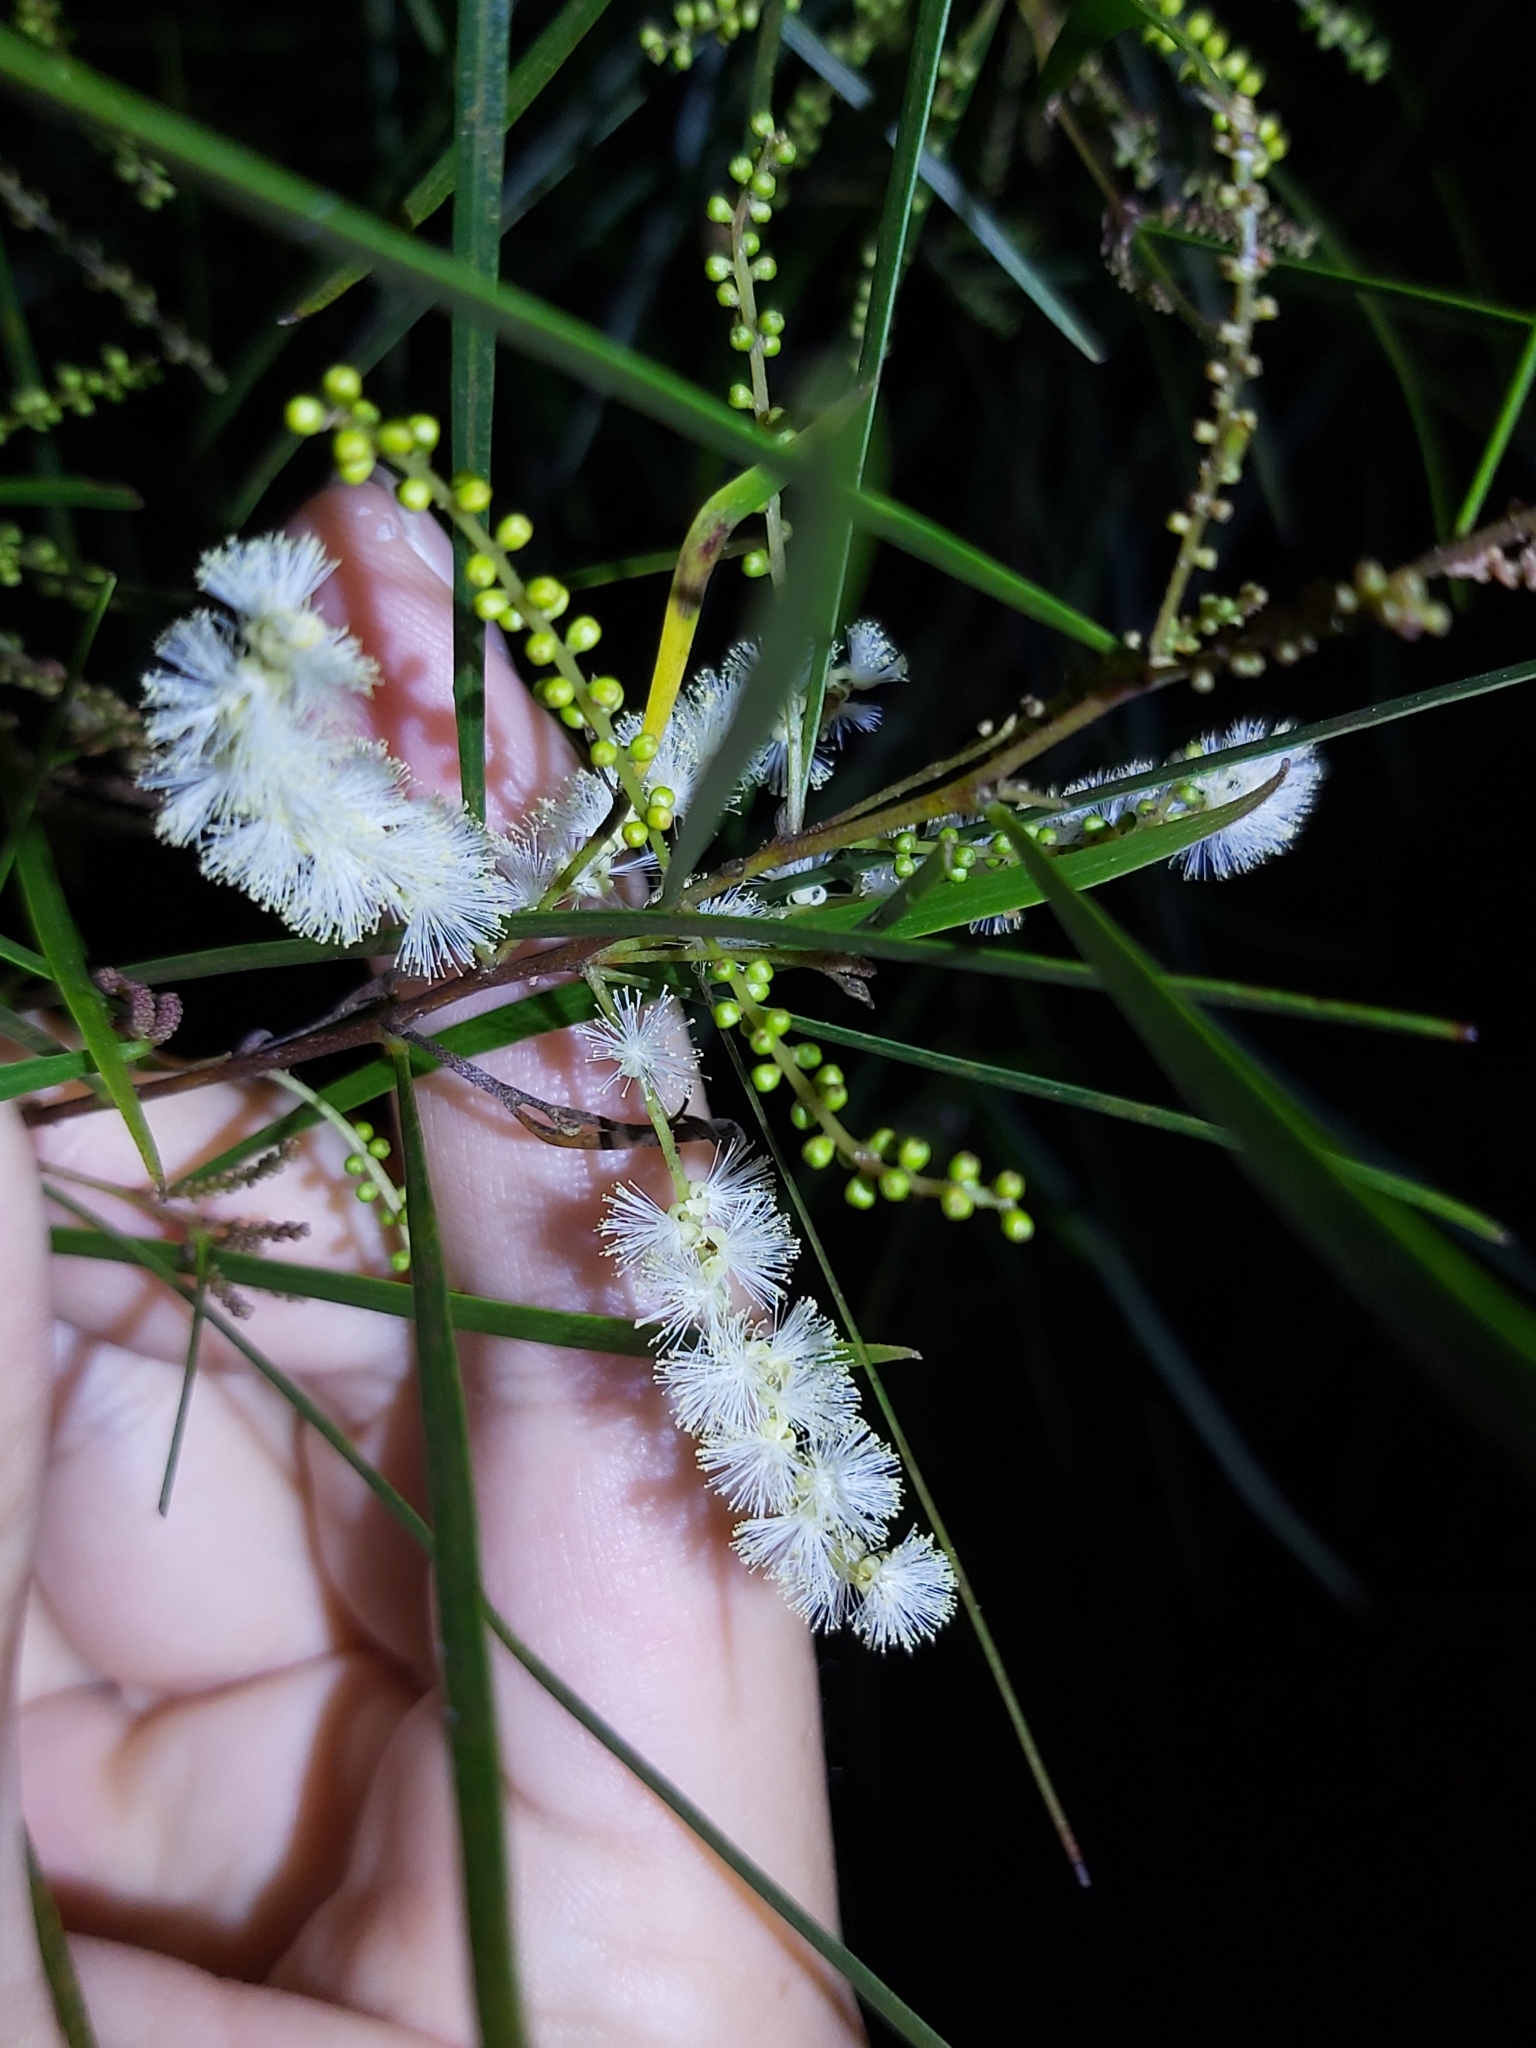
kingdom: Plantae
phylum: Tracheophyta
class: Magnoliopsida
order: Fabales
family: Fabaceae
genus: Acacia
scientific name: Acacia longissima
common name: Longleaf wattle
